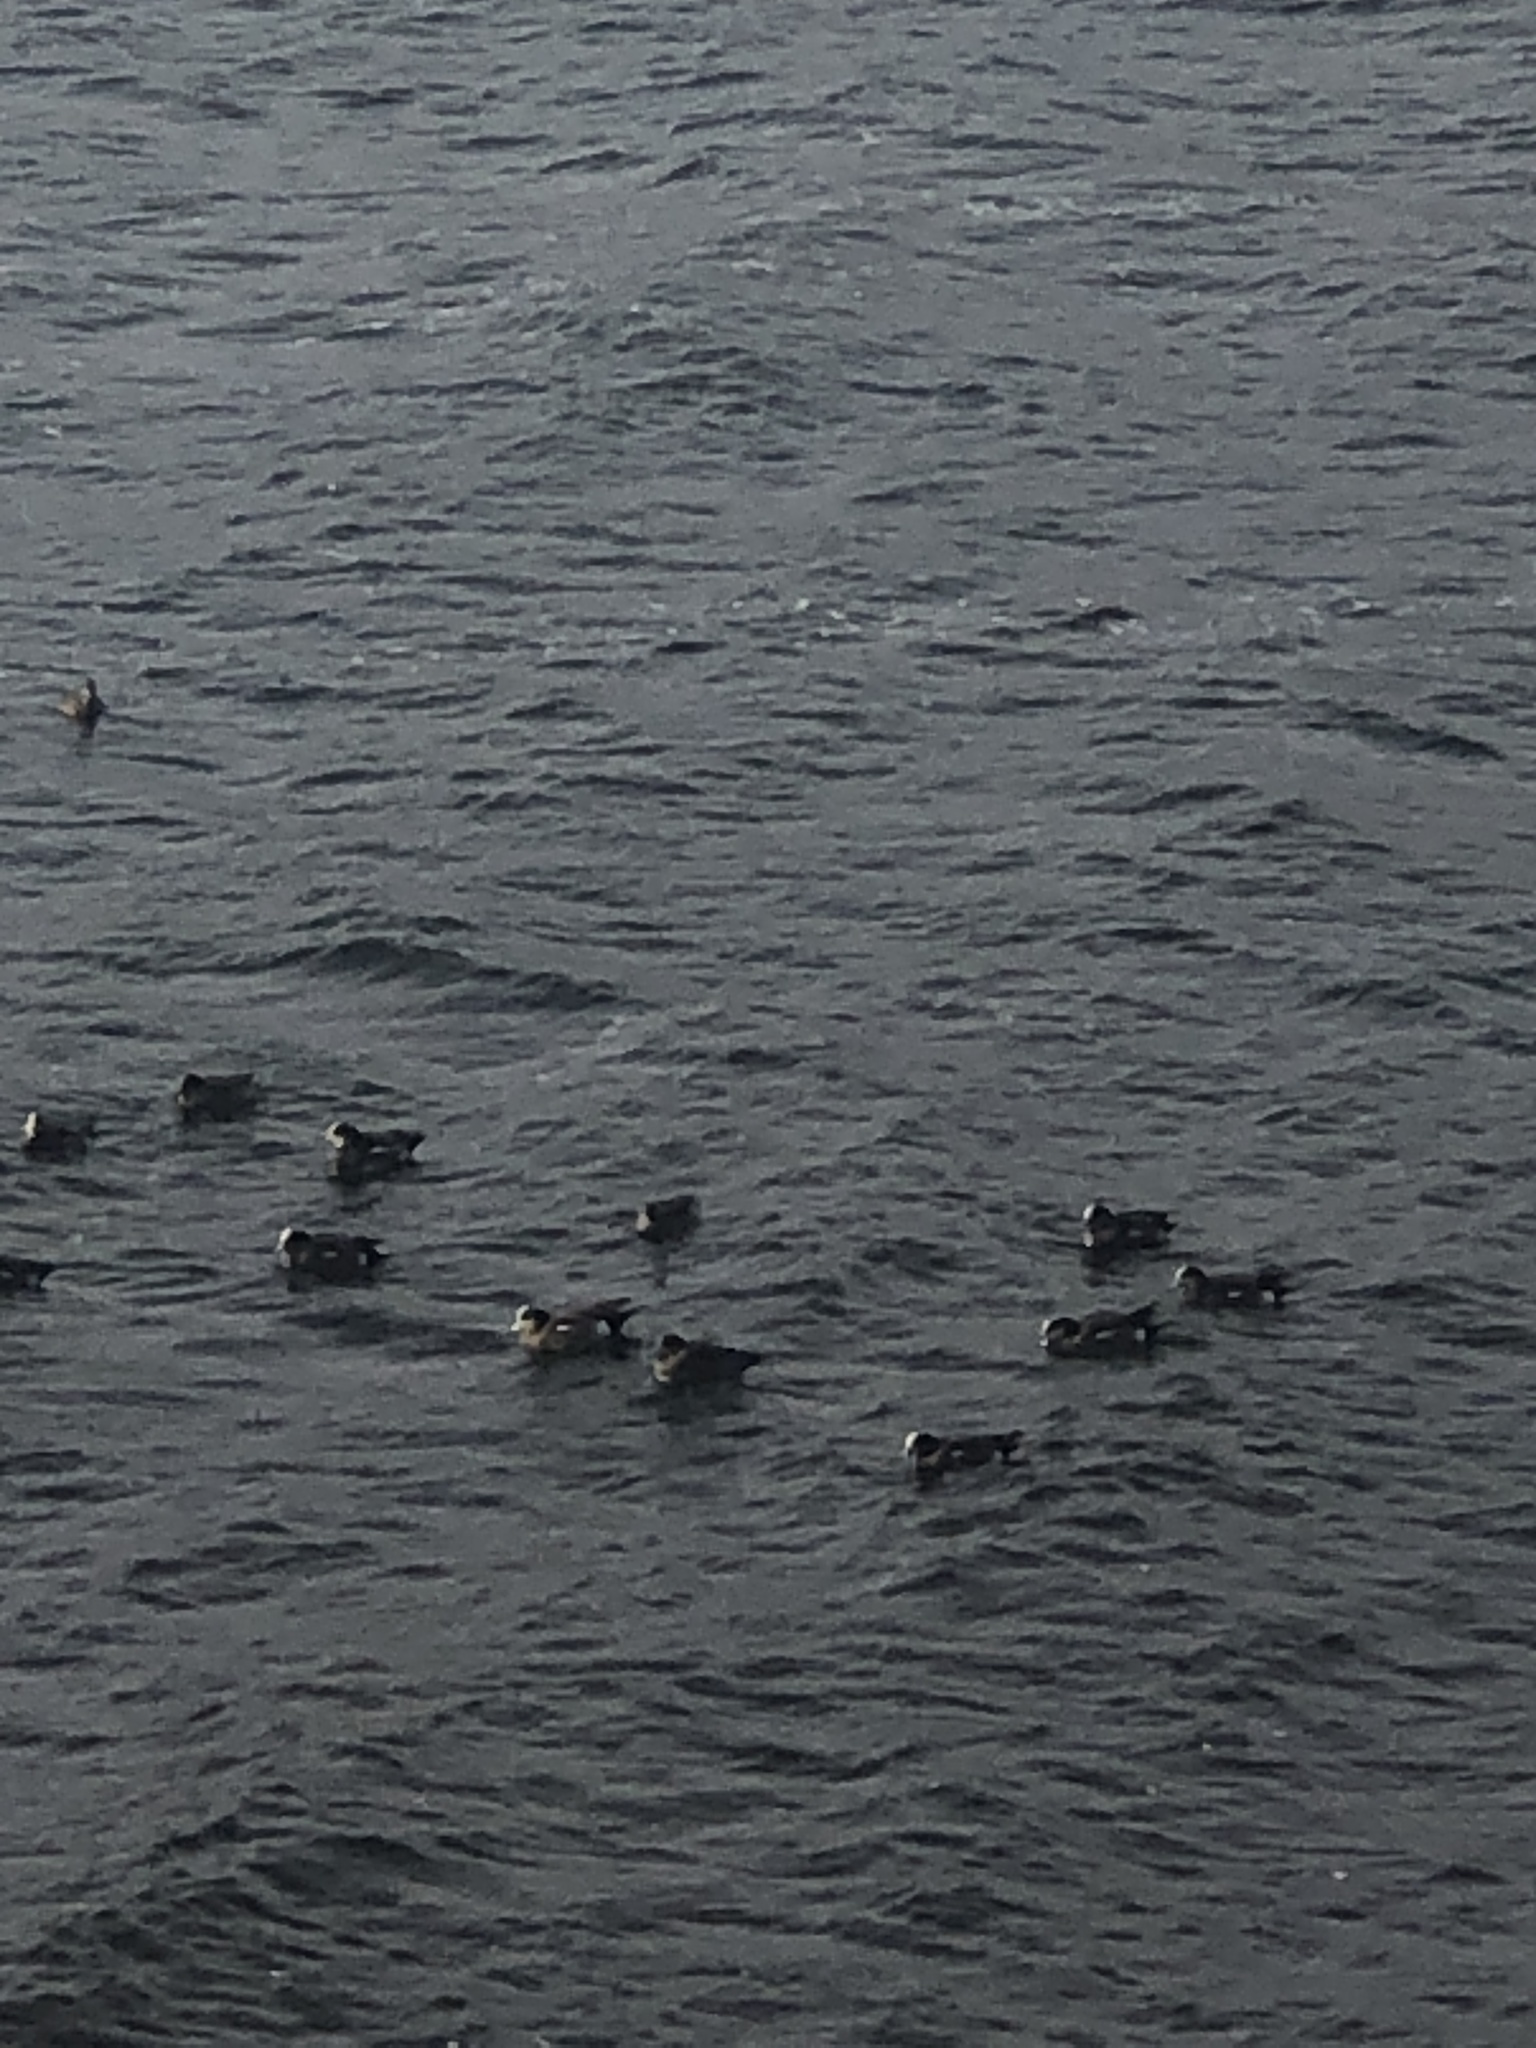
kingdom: Animalia
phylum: Chordata
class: Aves
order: Anseriformes
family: Anatidae
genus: Mareca
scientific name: Mareca americana
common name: American wigeon
